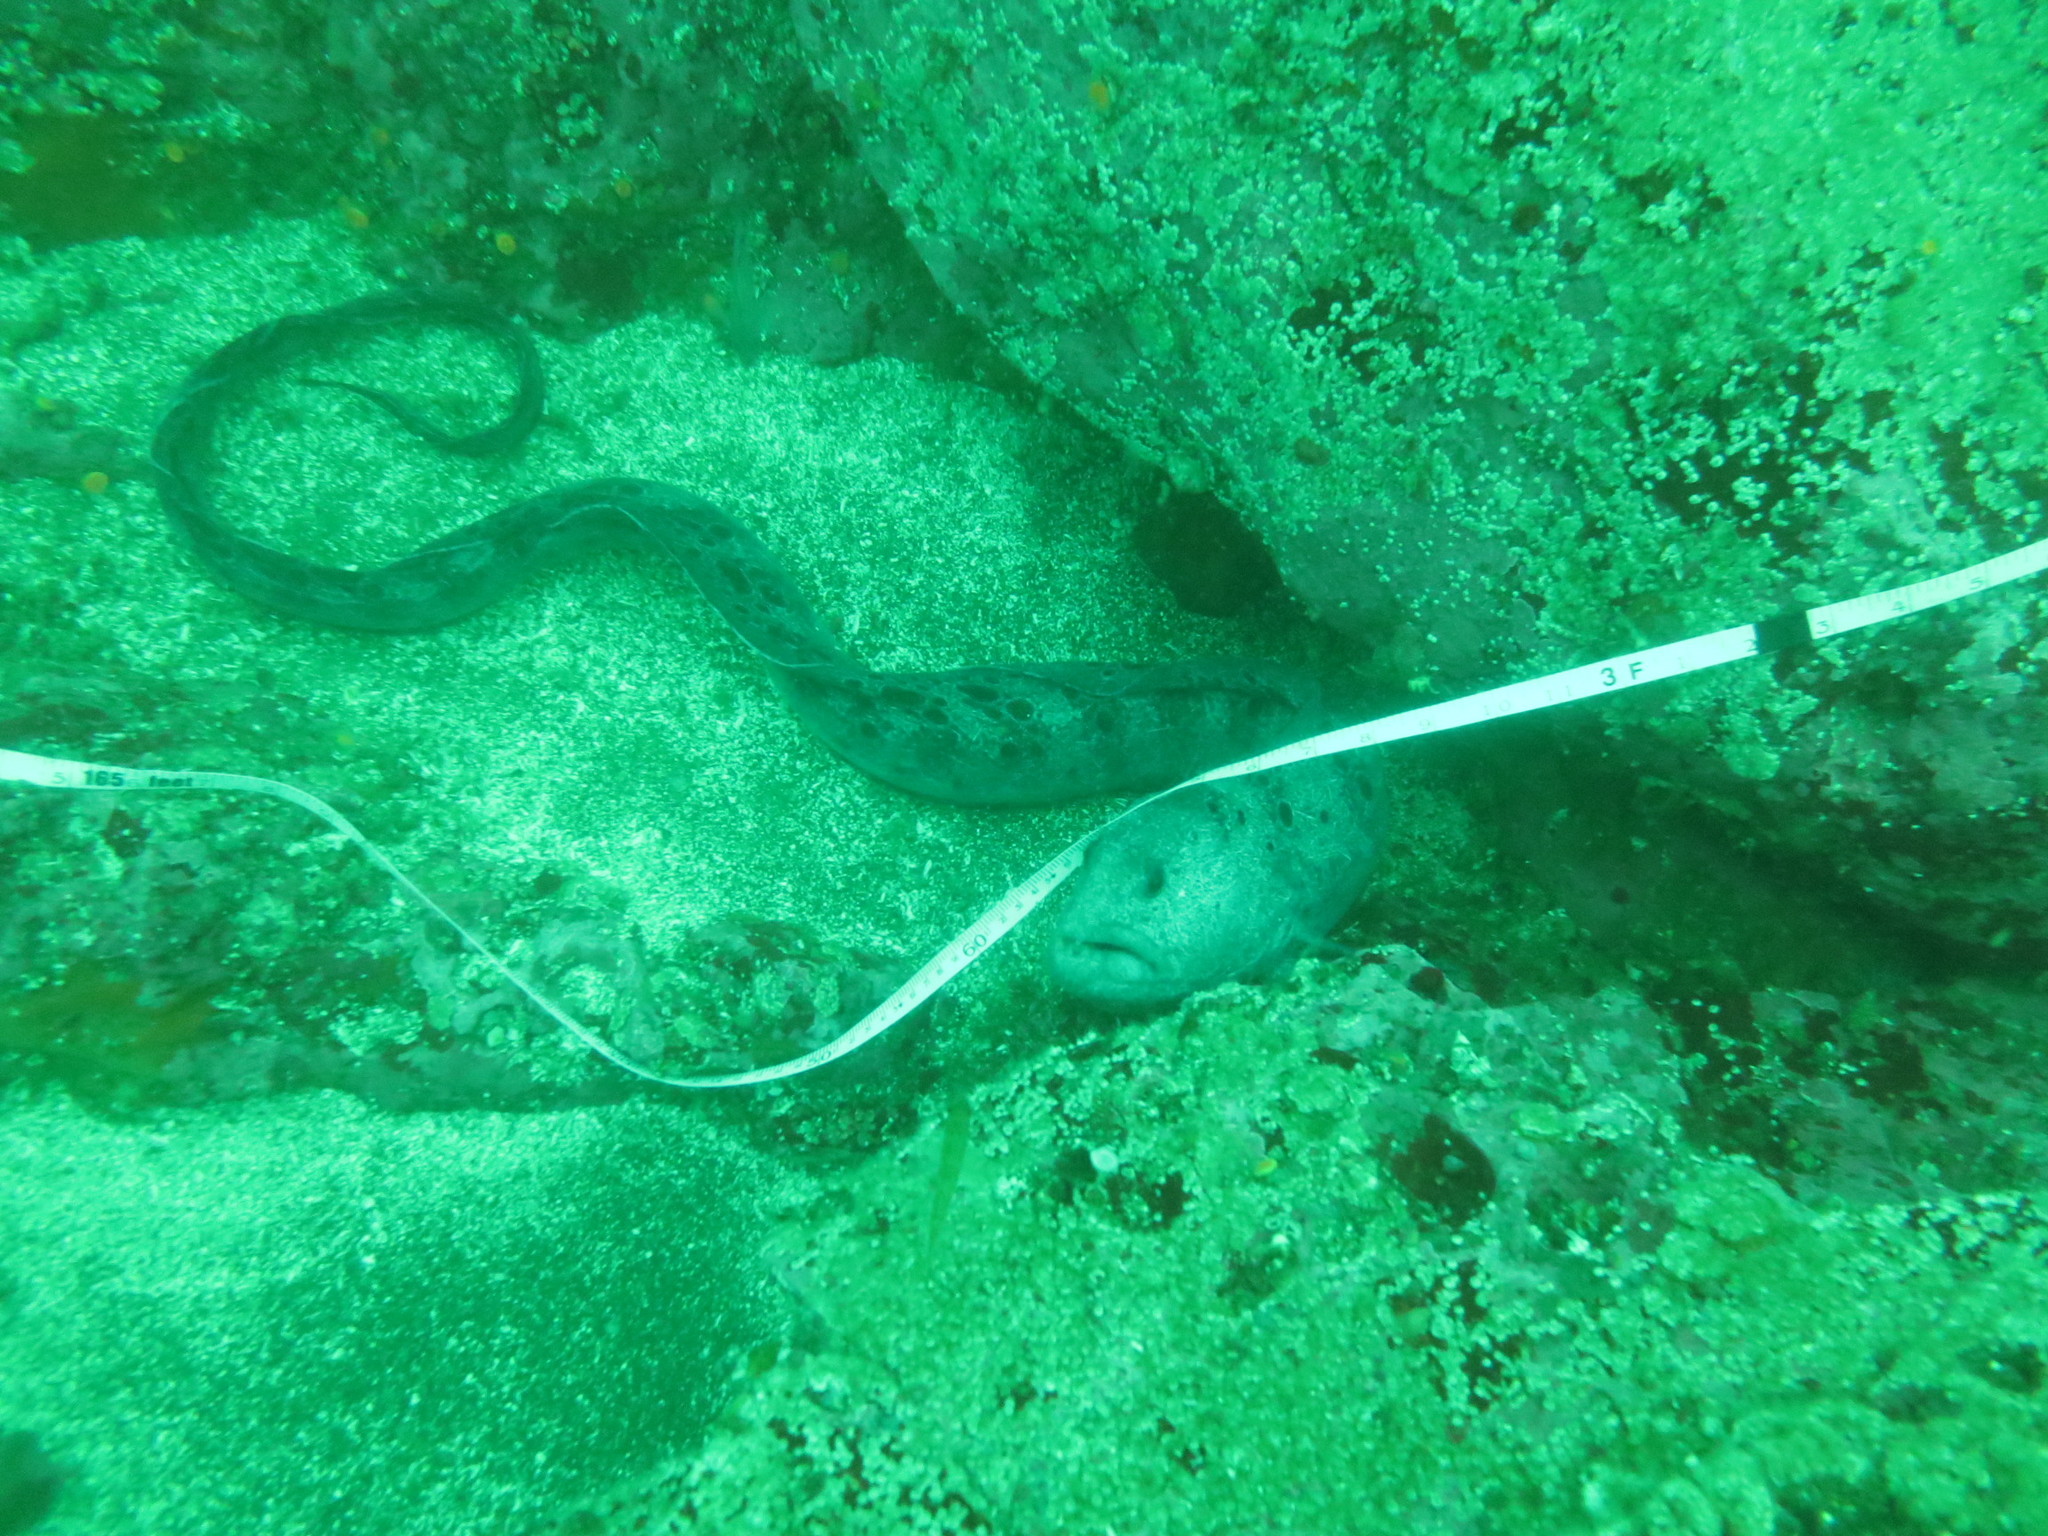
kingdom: Animalia
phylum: Chordata
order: Perciformes
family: Anarhichadidae
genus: Anarrhichthys
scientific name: Anarrhichthys ocellatus
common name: Wolf-eel
